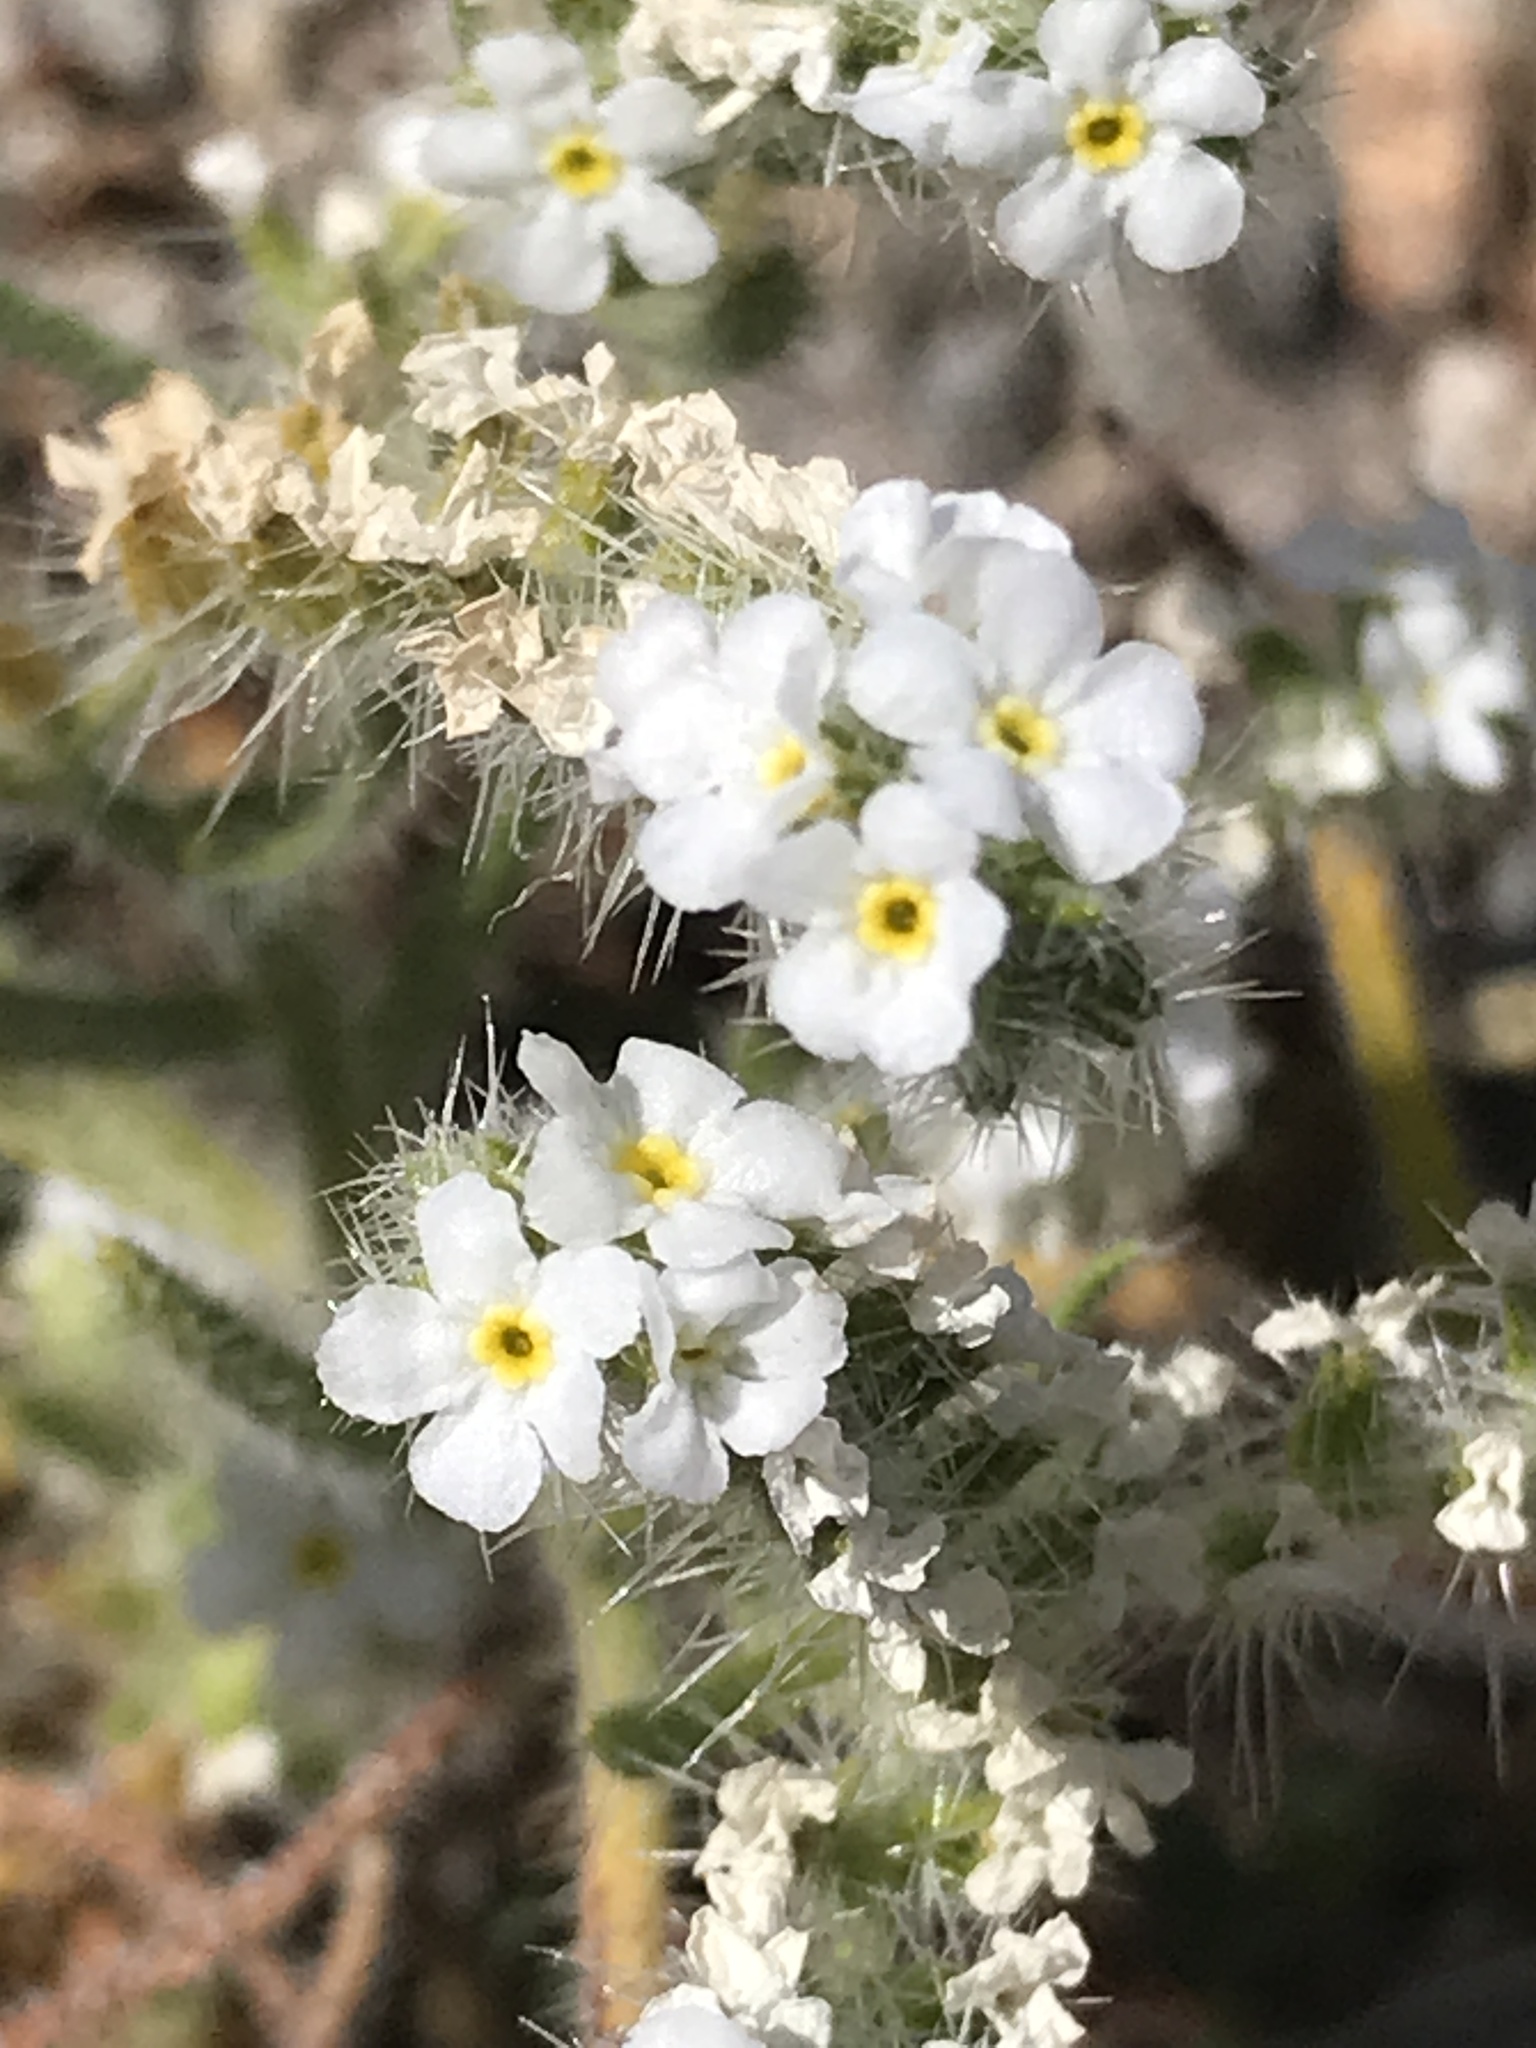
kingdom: Plantae
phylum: Tracheophyta
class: Magnoliopsida
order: Boraginales
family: Boraginaceae
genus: Johnstonella
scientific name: Johnstonella angustifolia
